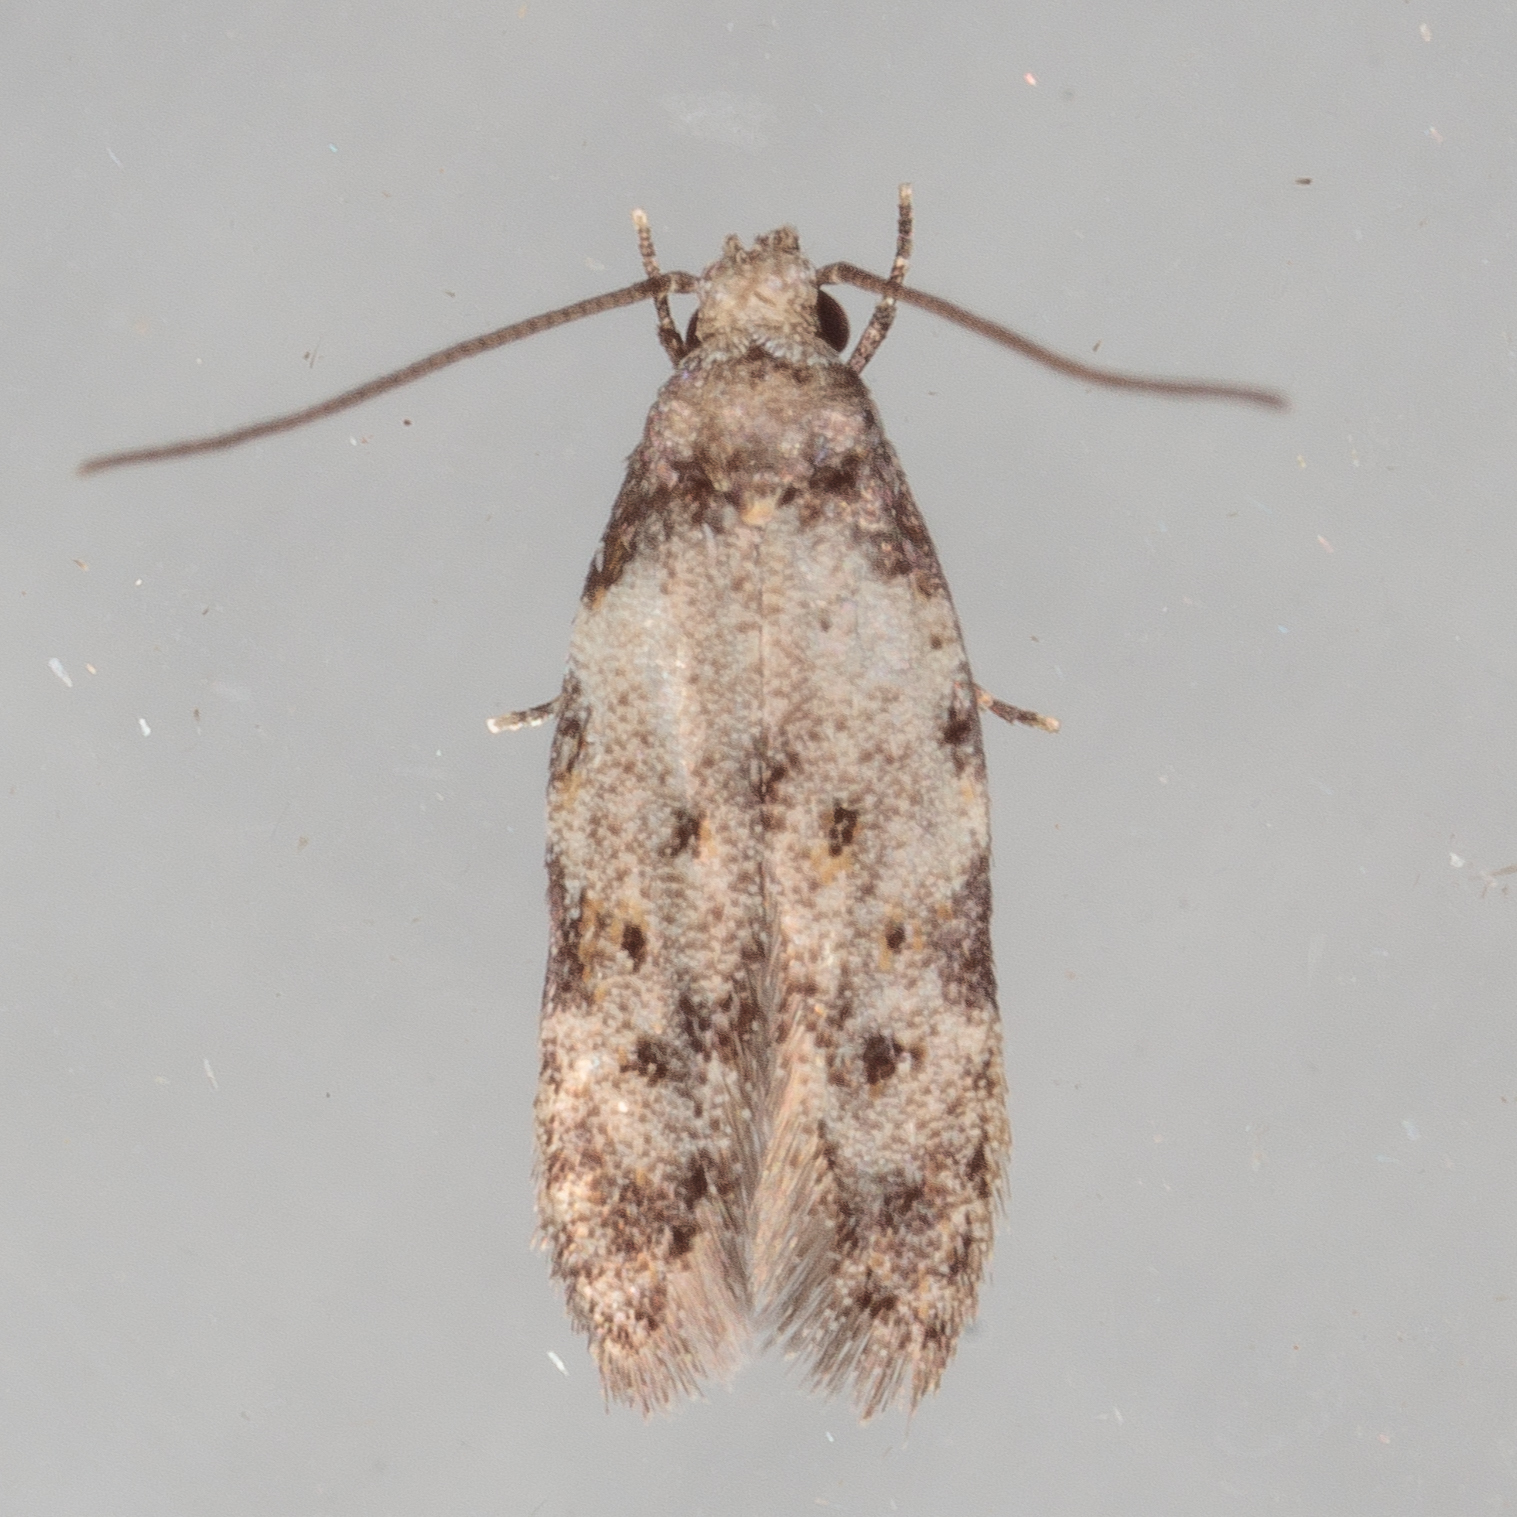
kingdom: Animalia
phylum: Arthropoda
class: Insecta
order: Lepidoptera
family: Autostichidae
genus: Taygete
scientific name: Taygete attributella
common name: Triangle-marked twirler moth
